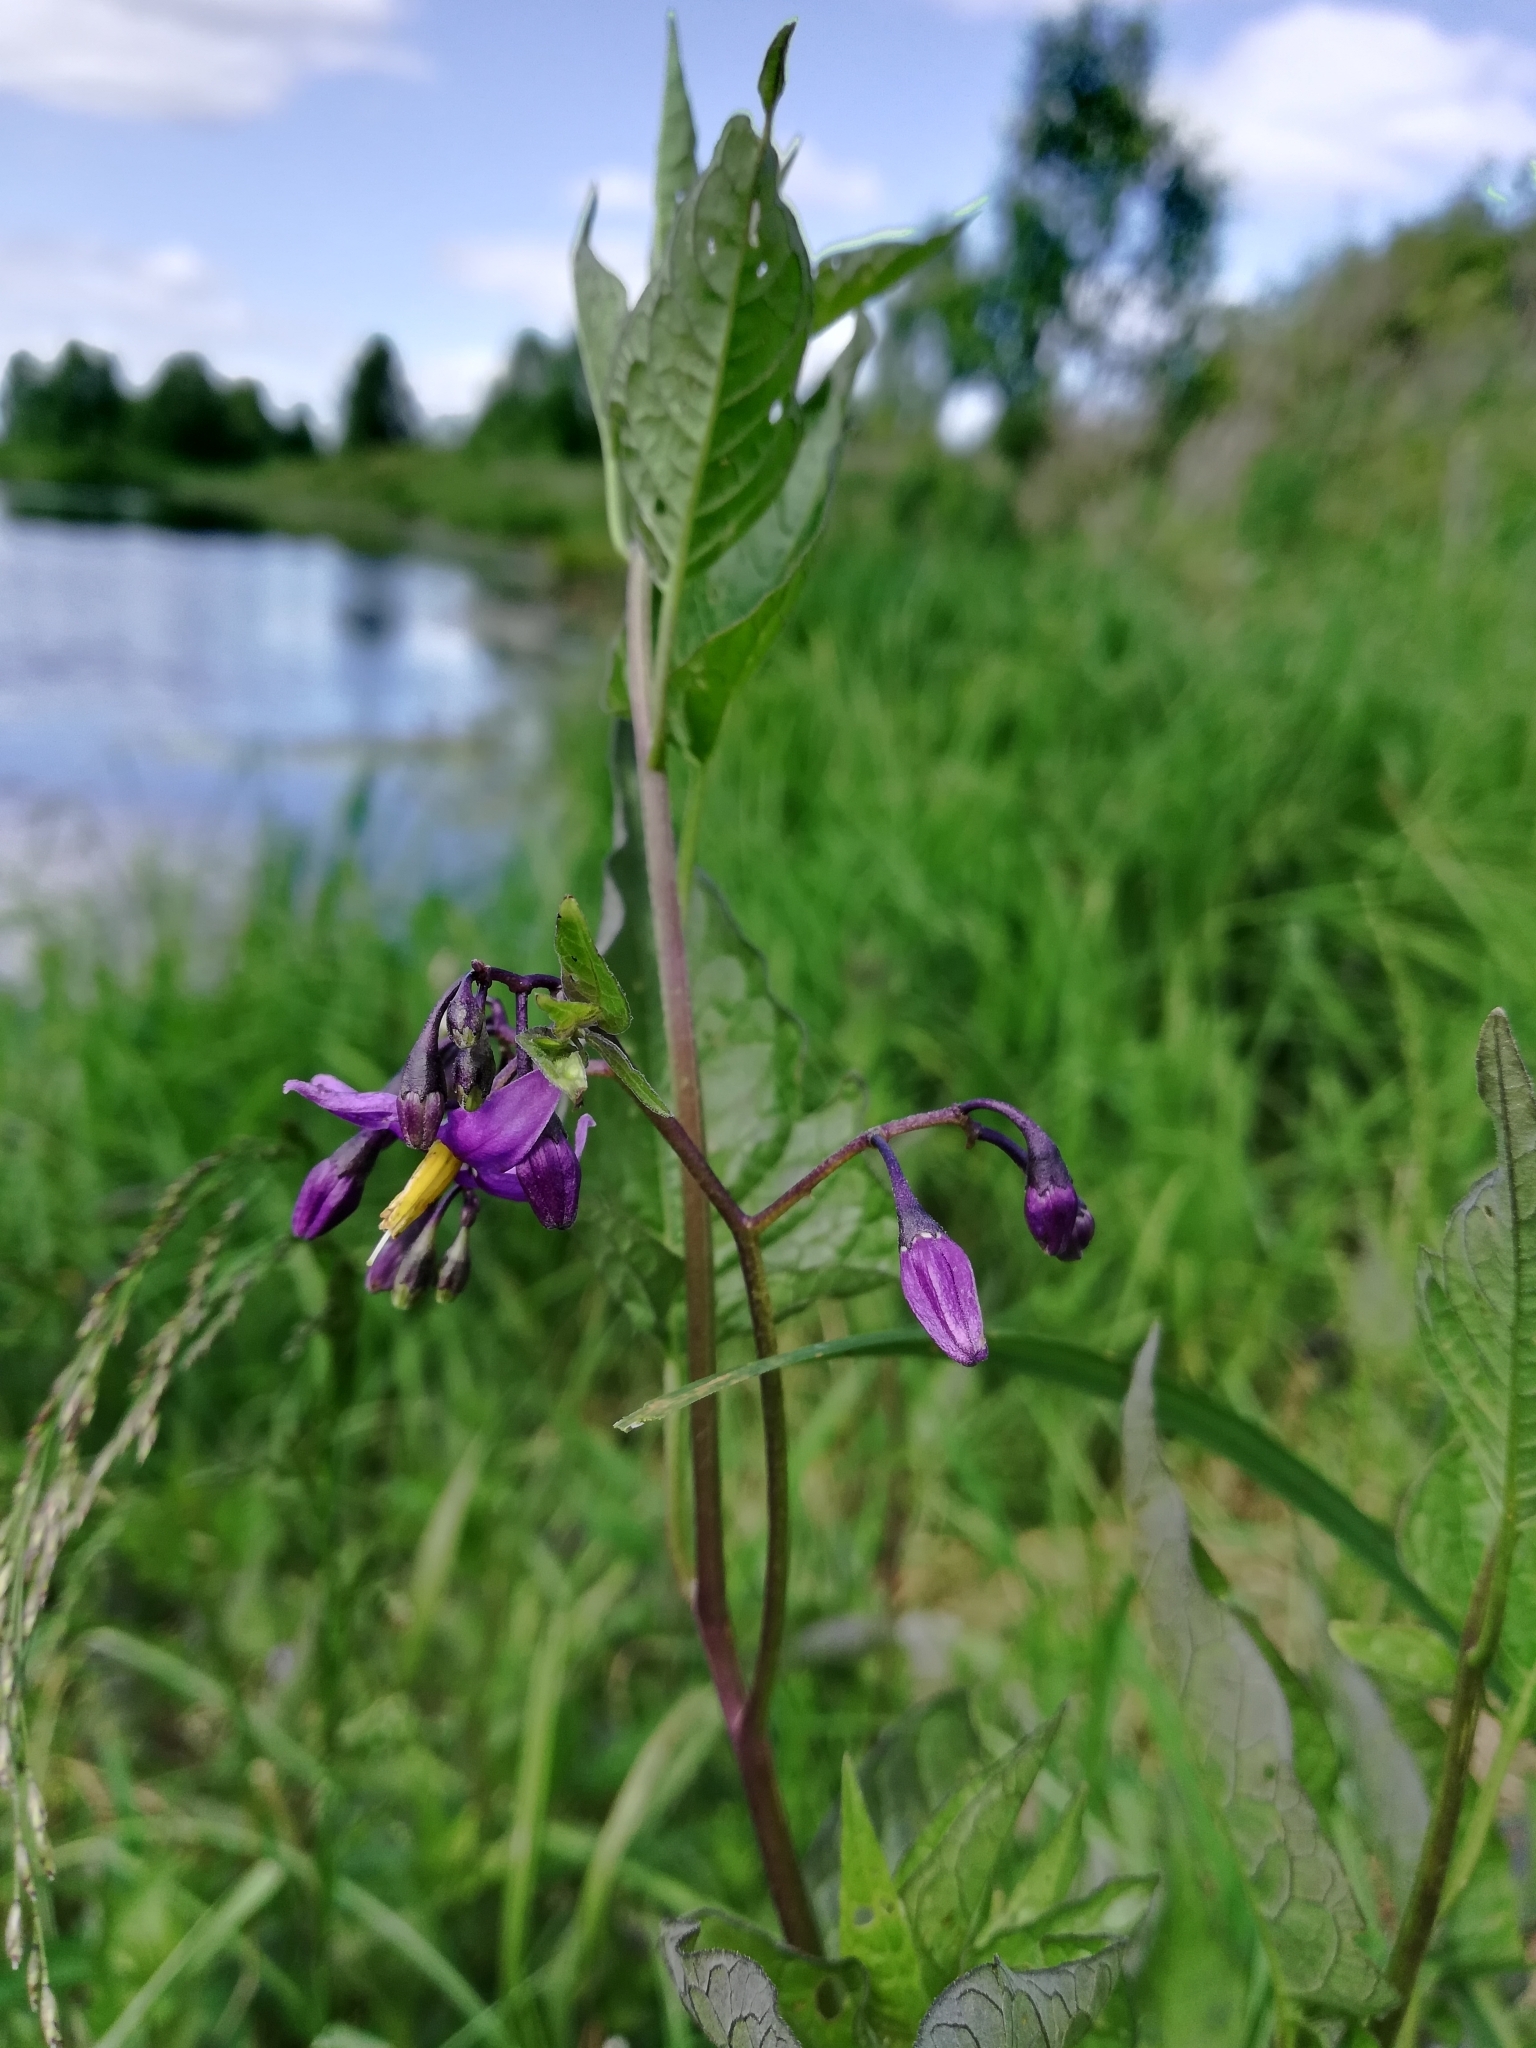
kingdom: Plantae
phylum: Tracheophyta
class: Magnoliopsida
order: Solanales
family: Solanaceae
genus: Solanum
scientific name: Solanum dulcamara
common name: Climbing nightshade
